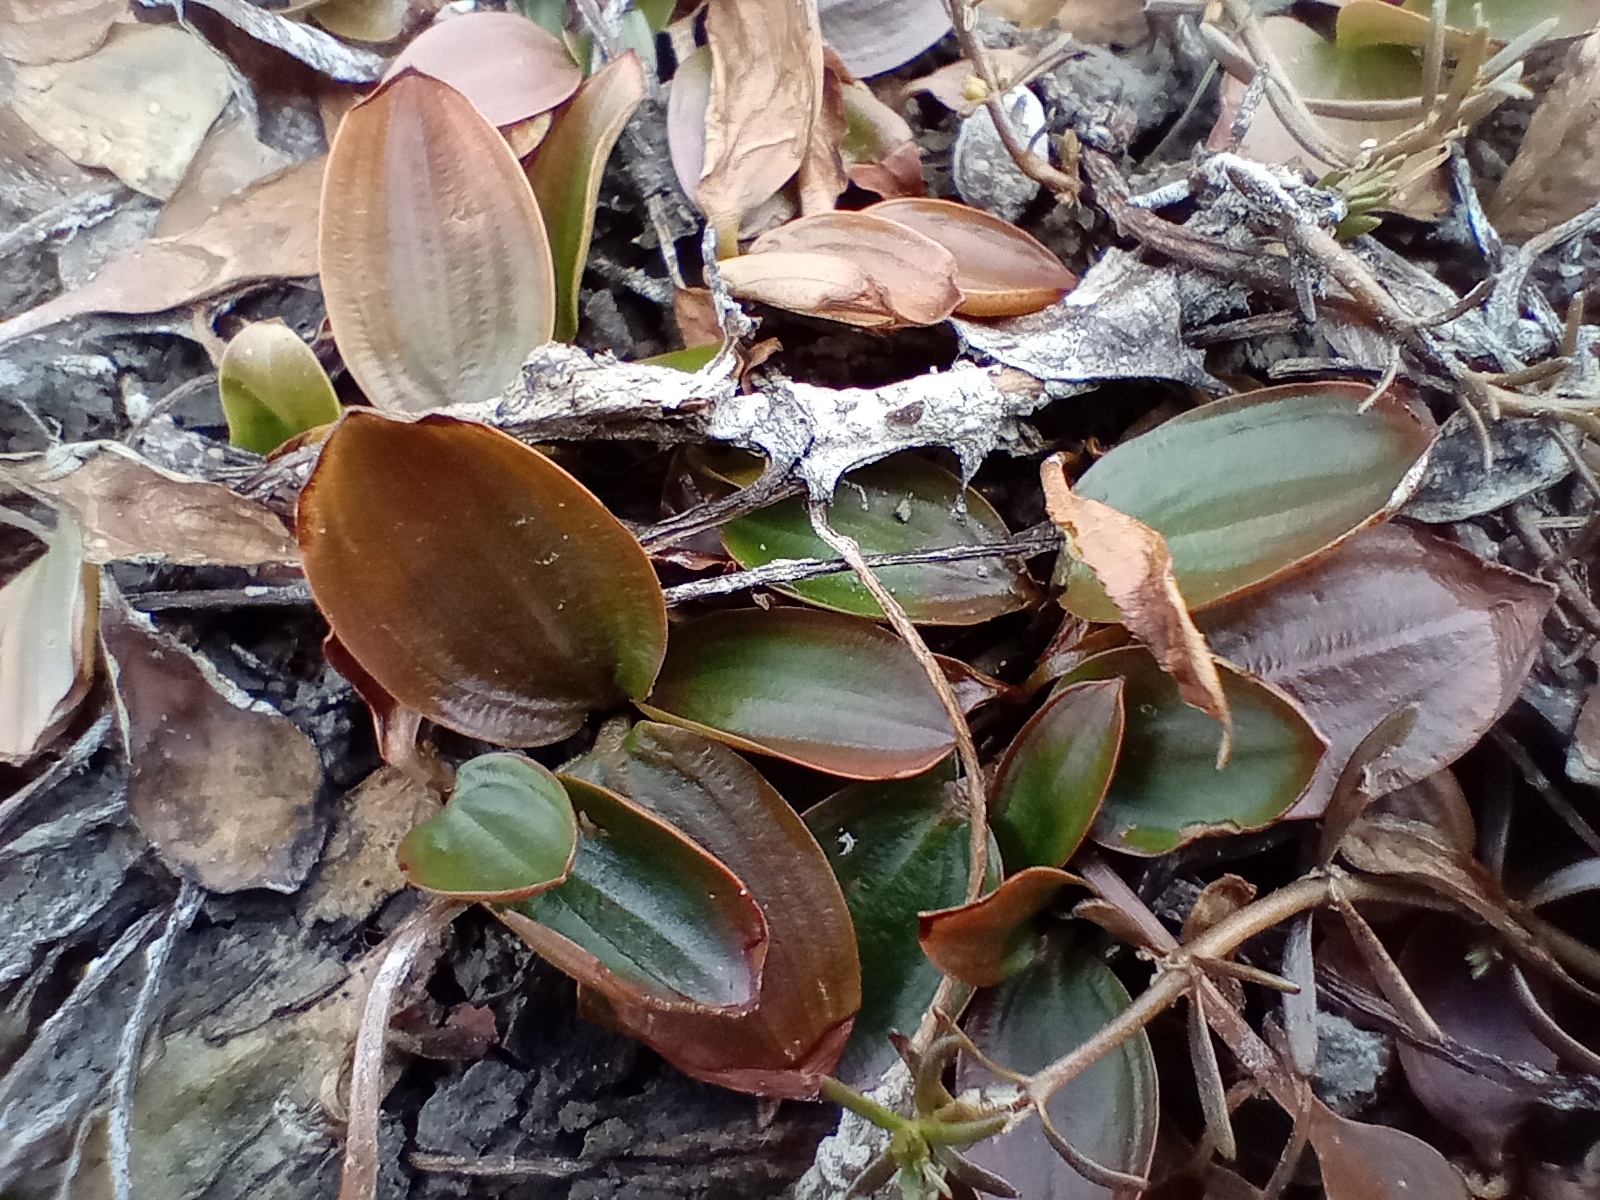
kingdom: Plantae
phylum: Tracheophyta
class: Liliopsida
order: Alismatales
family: Potamogetonaceae
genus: Potamogeton
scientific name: Potamogeton cheesemanii
